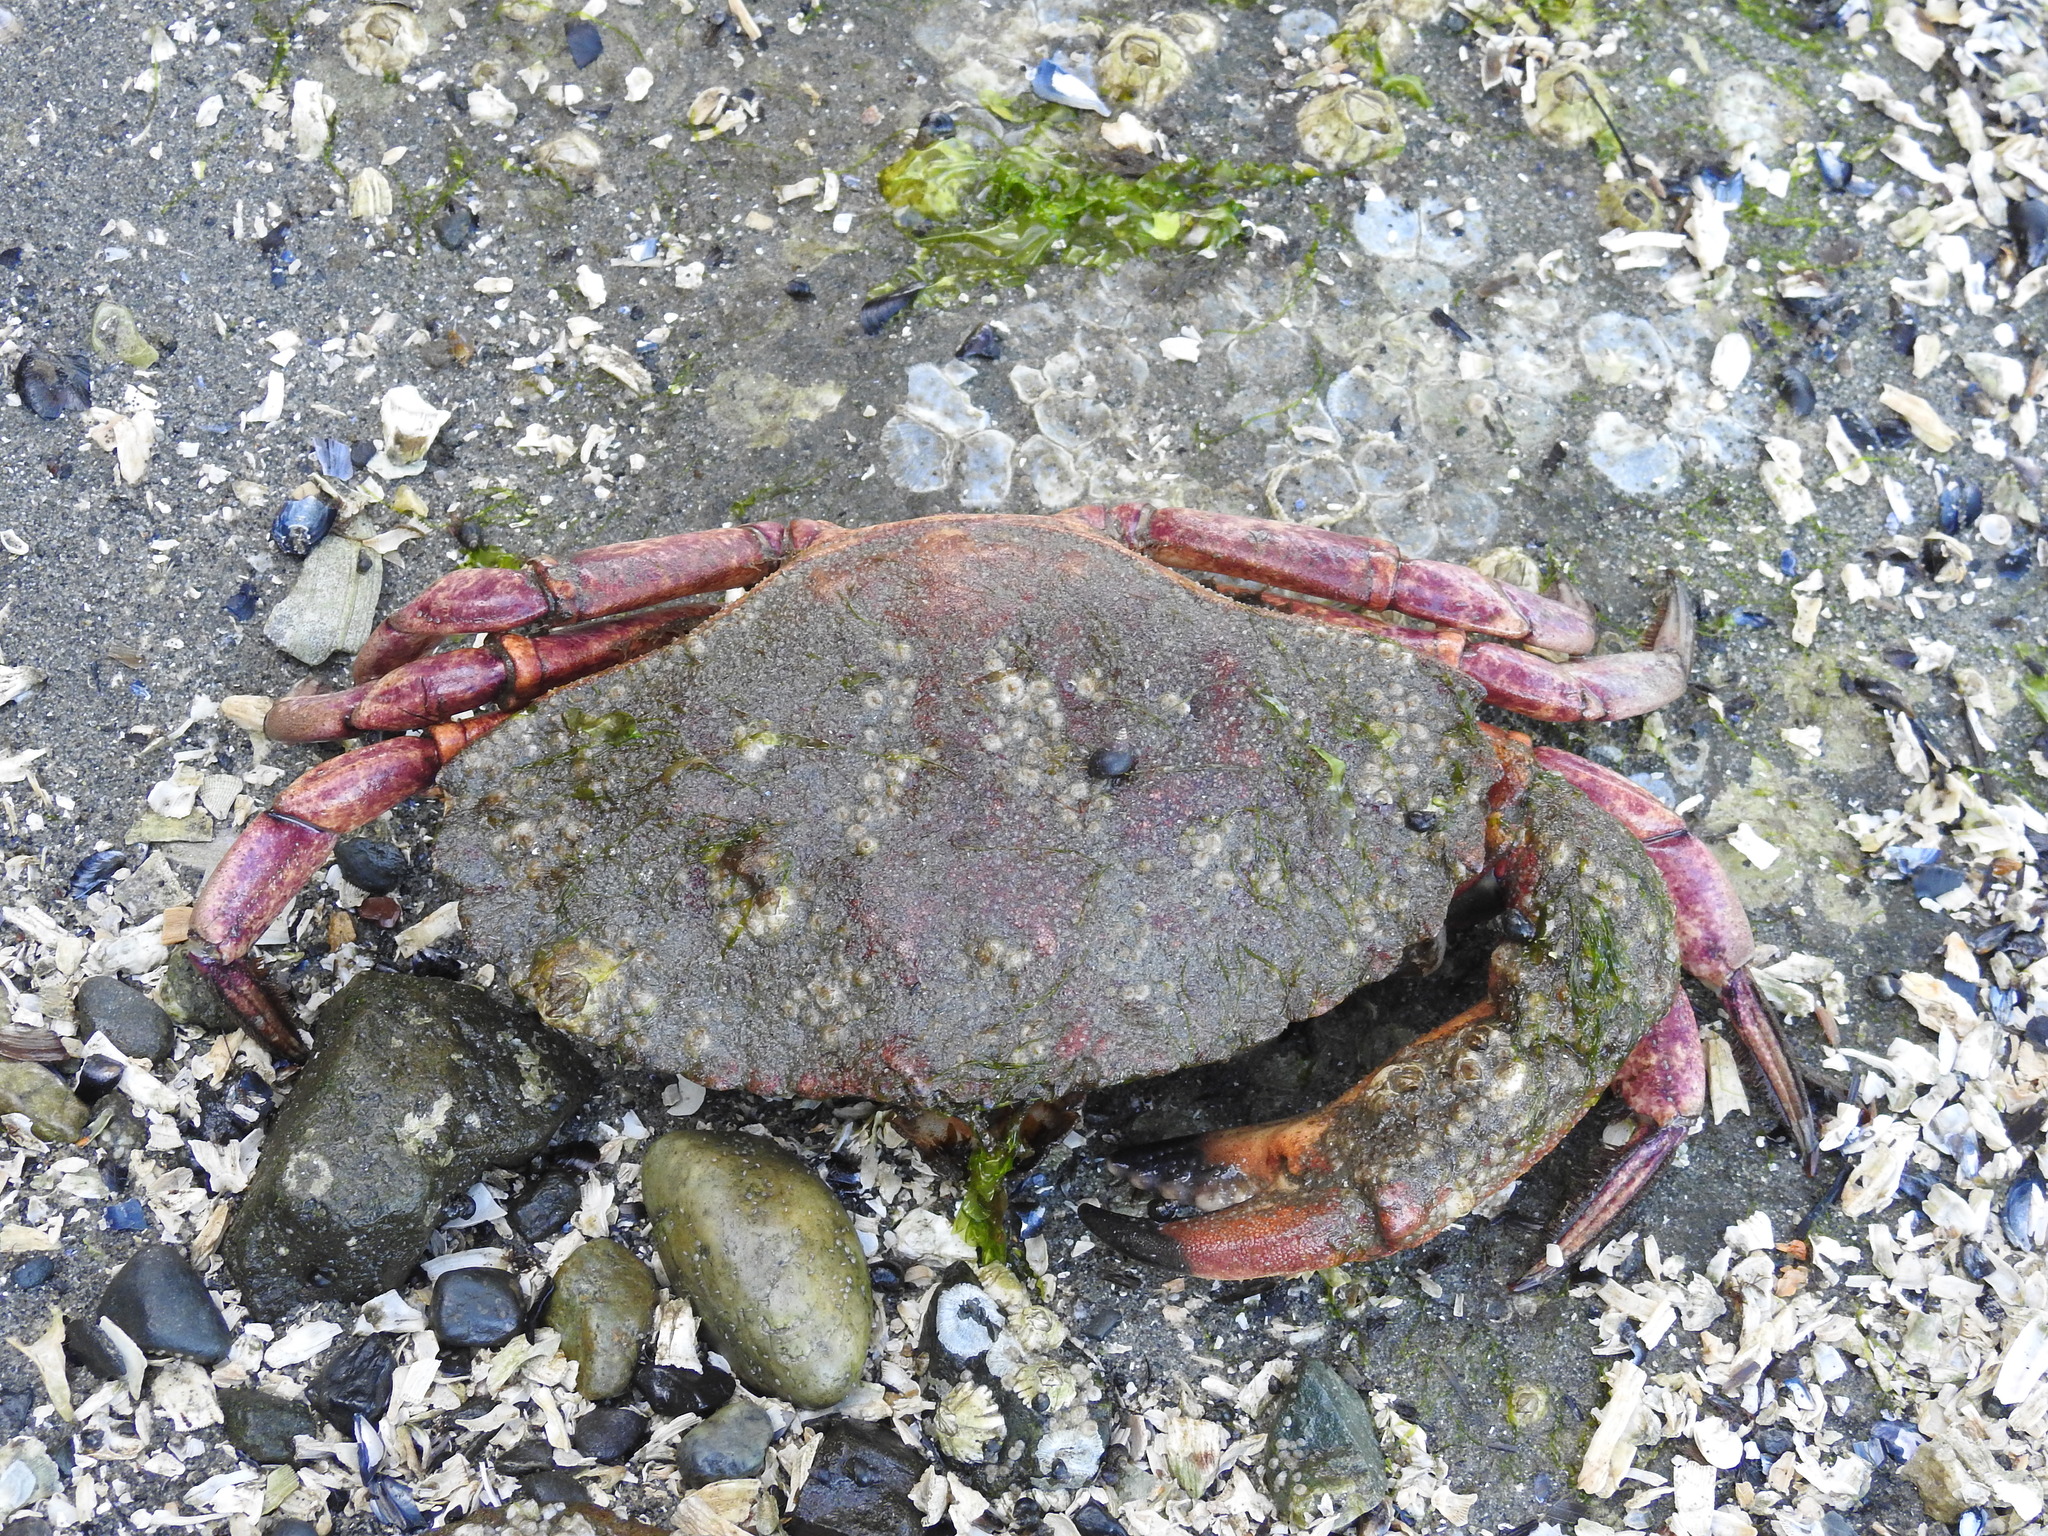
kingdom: Animalia
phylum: Arthropoda
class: Malacostraca
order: Decapoda
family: Cancridae
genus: Cancer
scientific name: Cancer productus
